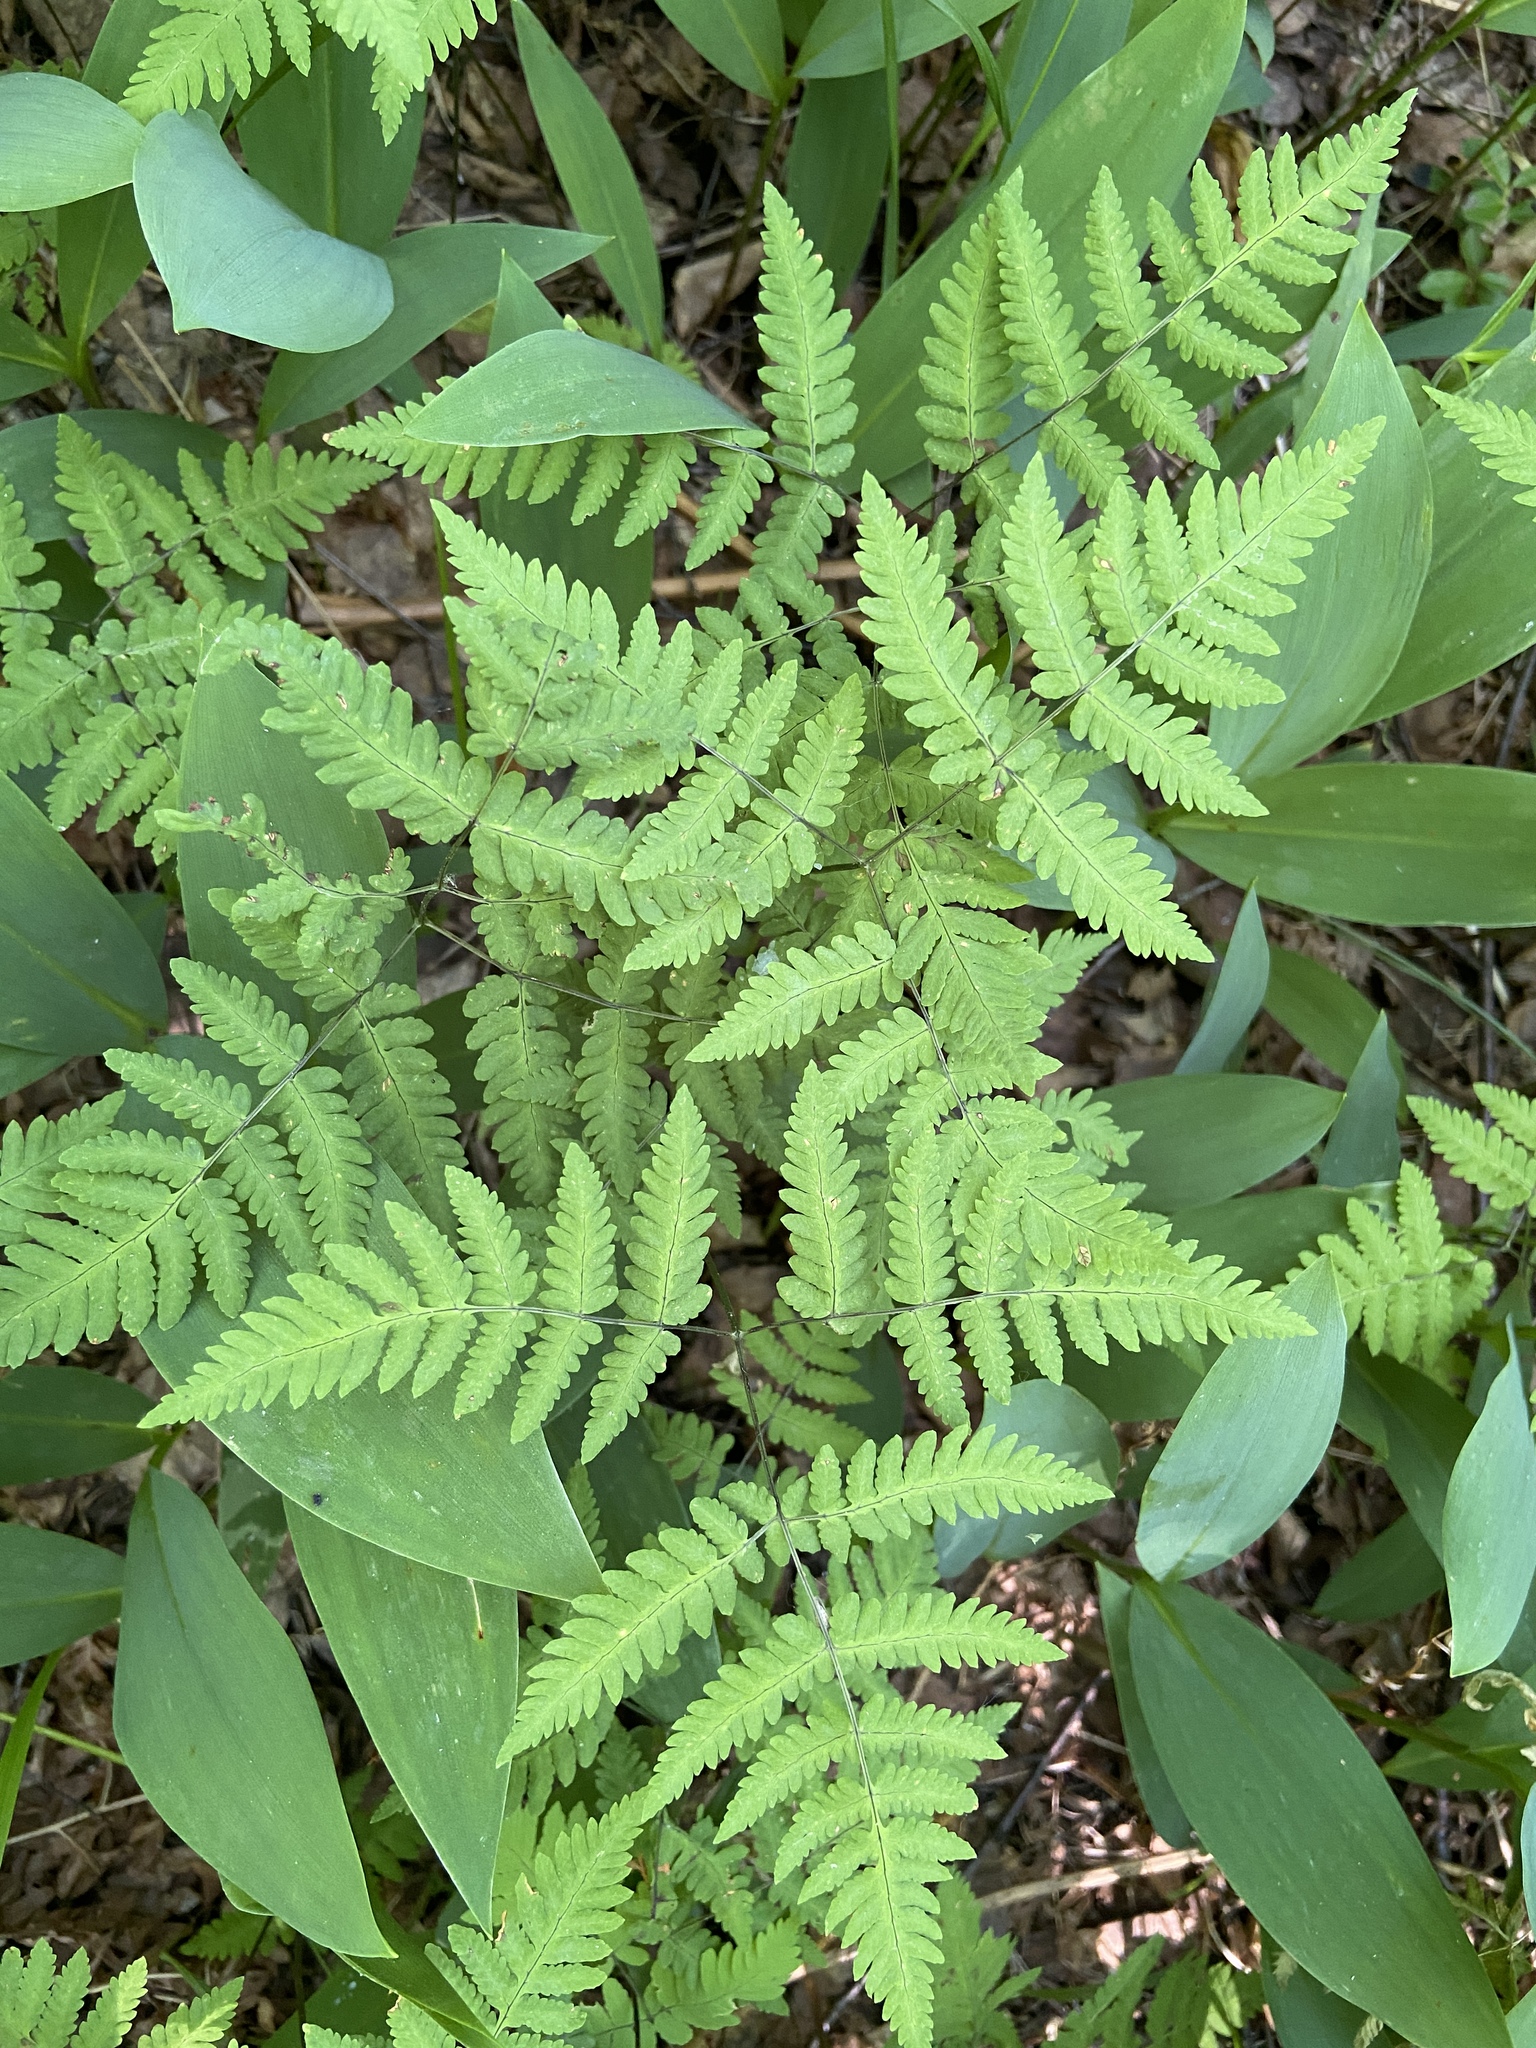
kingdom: Plantae
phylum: Tracheophyta
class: Polypodiopsida
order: Polypodiales
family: Cystopteridaceae
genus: Gymnocarpium
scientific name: Gymnocarpium dryopteris
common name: Oak fern
